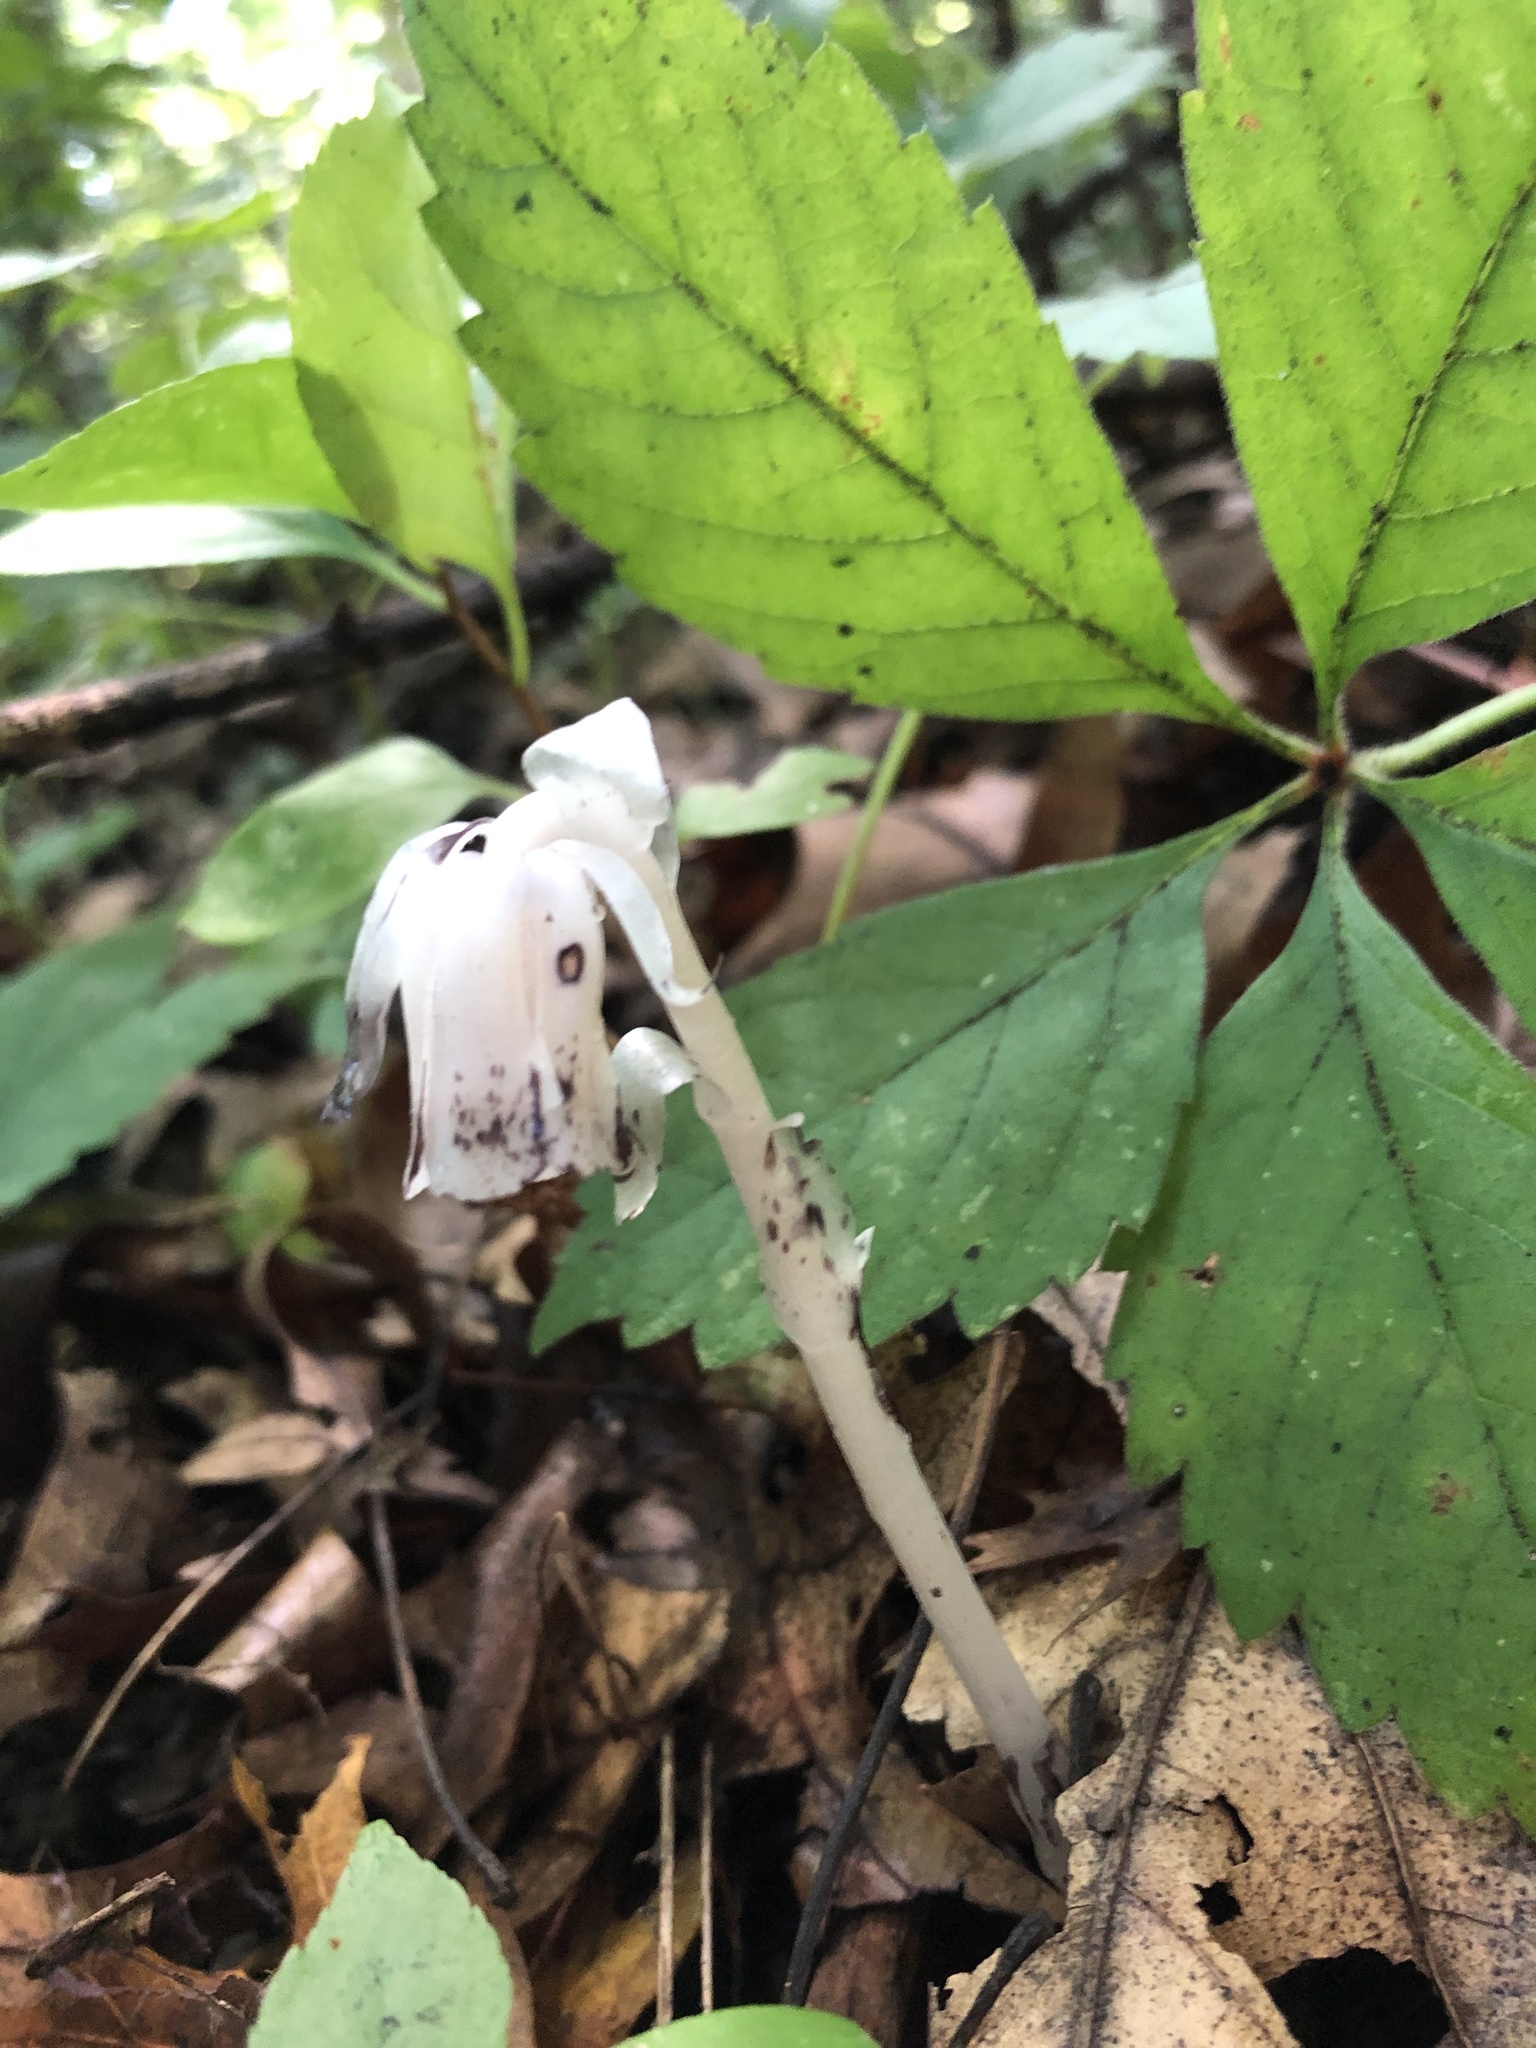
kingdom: Plantae
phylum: Tracheophyta
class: Magnoliopsida
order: Ericales
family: Ericaceae
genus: Monotropa
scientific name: Monotropa uniflora
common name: Convulsion root
